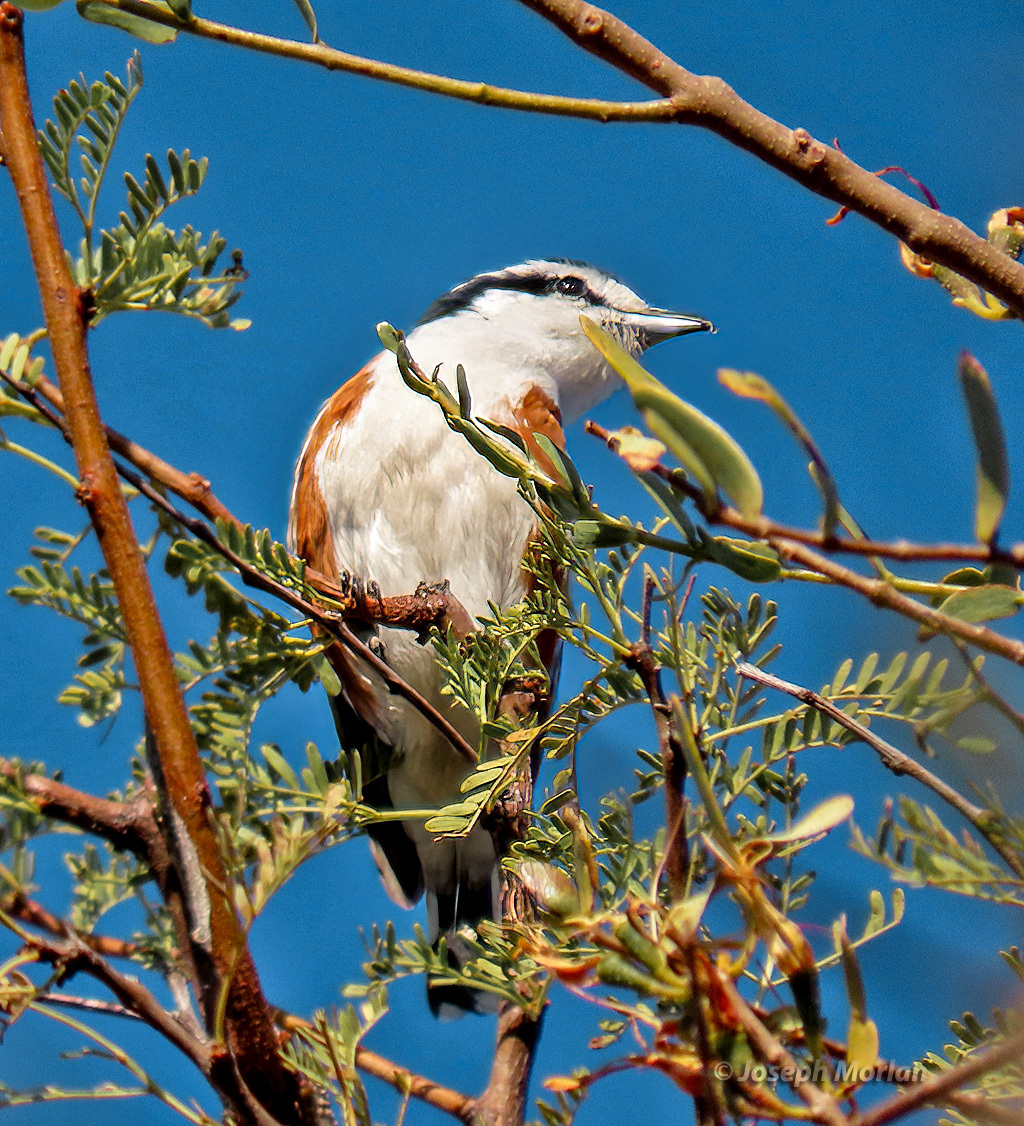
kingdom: Animalia
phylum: Chordata
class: Aves
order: Passeriformes
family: Malaconotidae
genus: Nilaus
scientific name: Nilaus afer
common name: Brubru
